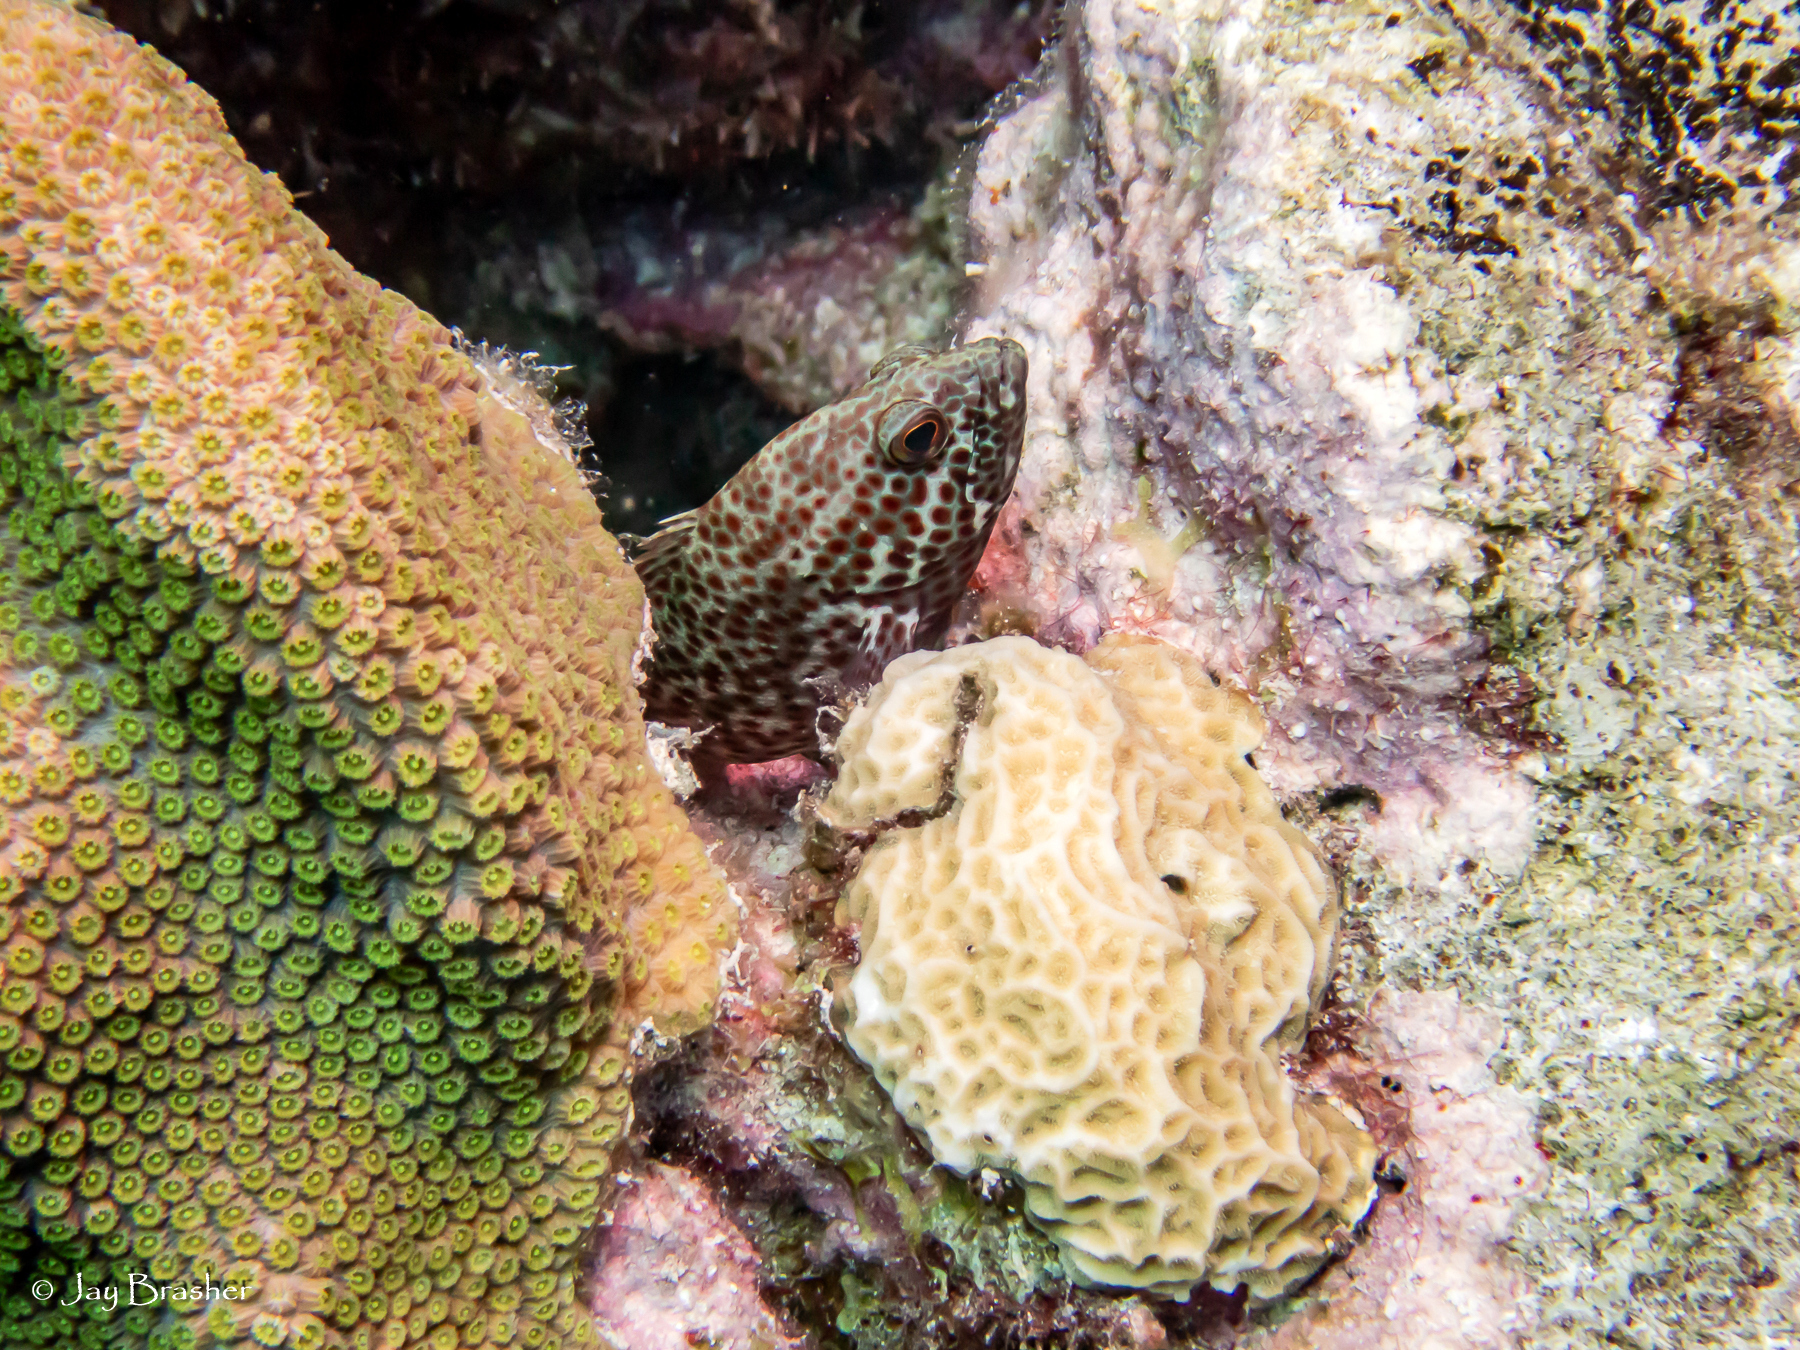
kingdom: Animalia
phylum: Chordata
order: Perciformes
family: Serranidae
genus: Cephalopholis
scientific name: Cephalopholis cruentata
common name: Graysby
